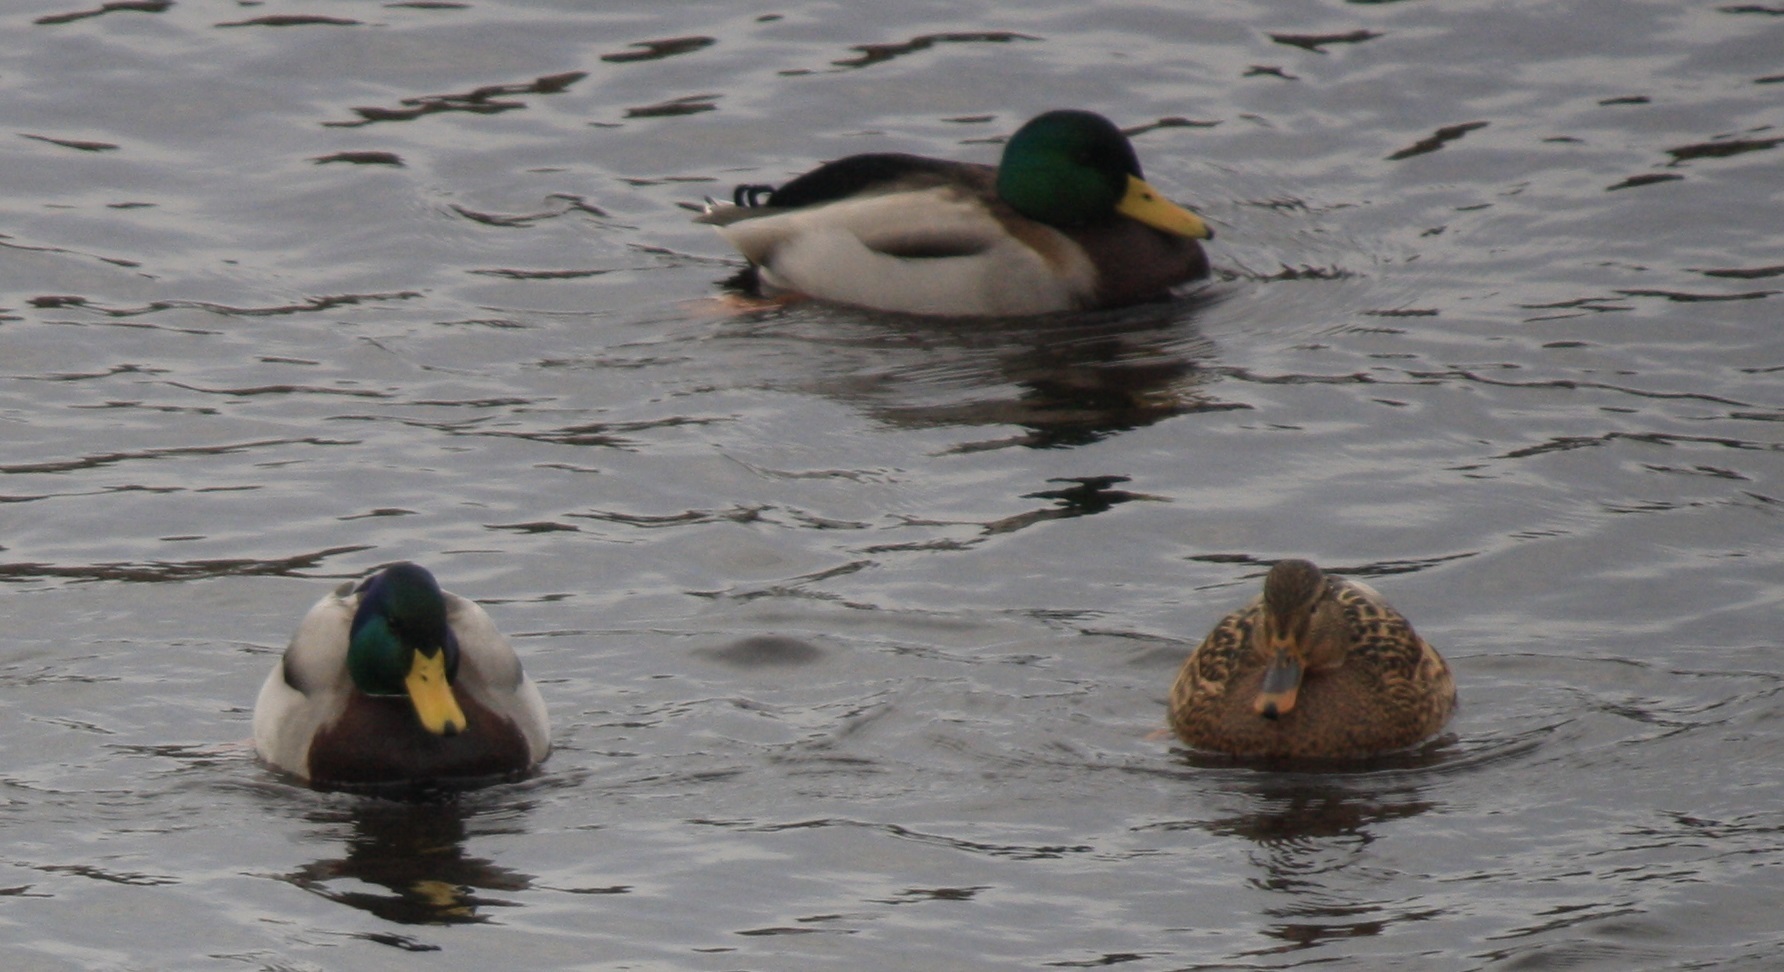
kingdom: Animalia
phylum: Chordata
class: Aves
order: Anseriformes
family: Anatidae
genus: Anas
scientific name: Anas platyrhynchos
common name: Mallard
